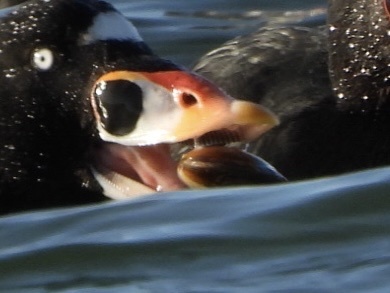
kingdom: Animalia
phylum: Mollusca
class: Bivalvia
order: Cardiida
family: Psammobiidae
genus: Nuttallia
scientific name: Nuttallia obscurata
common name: Purple mahogany-clam
